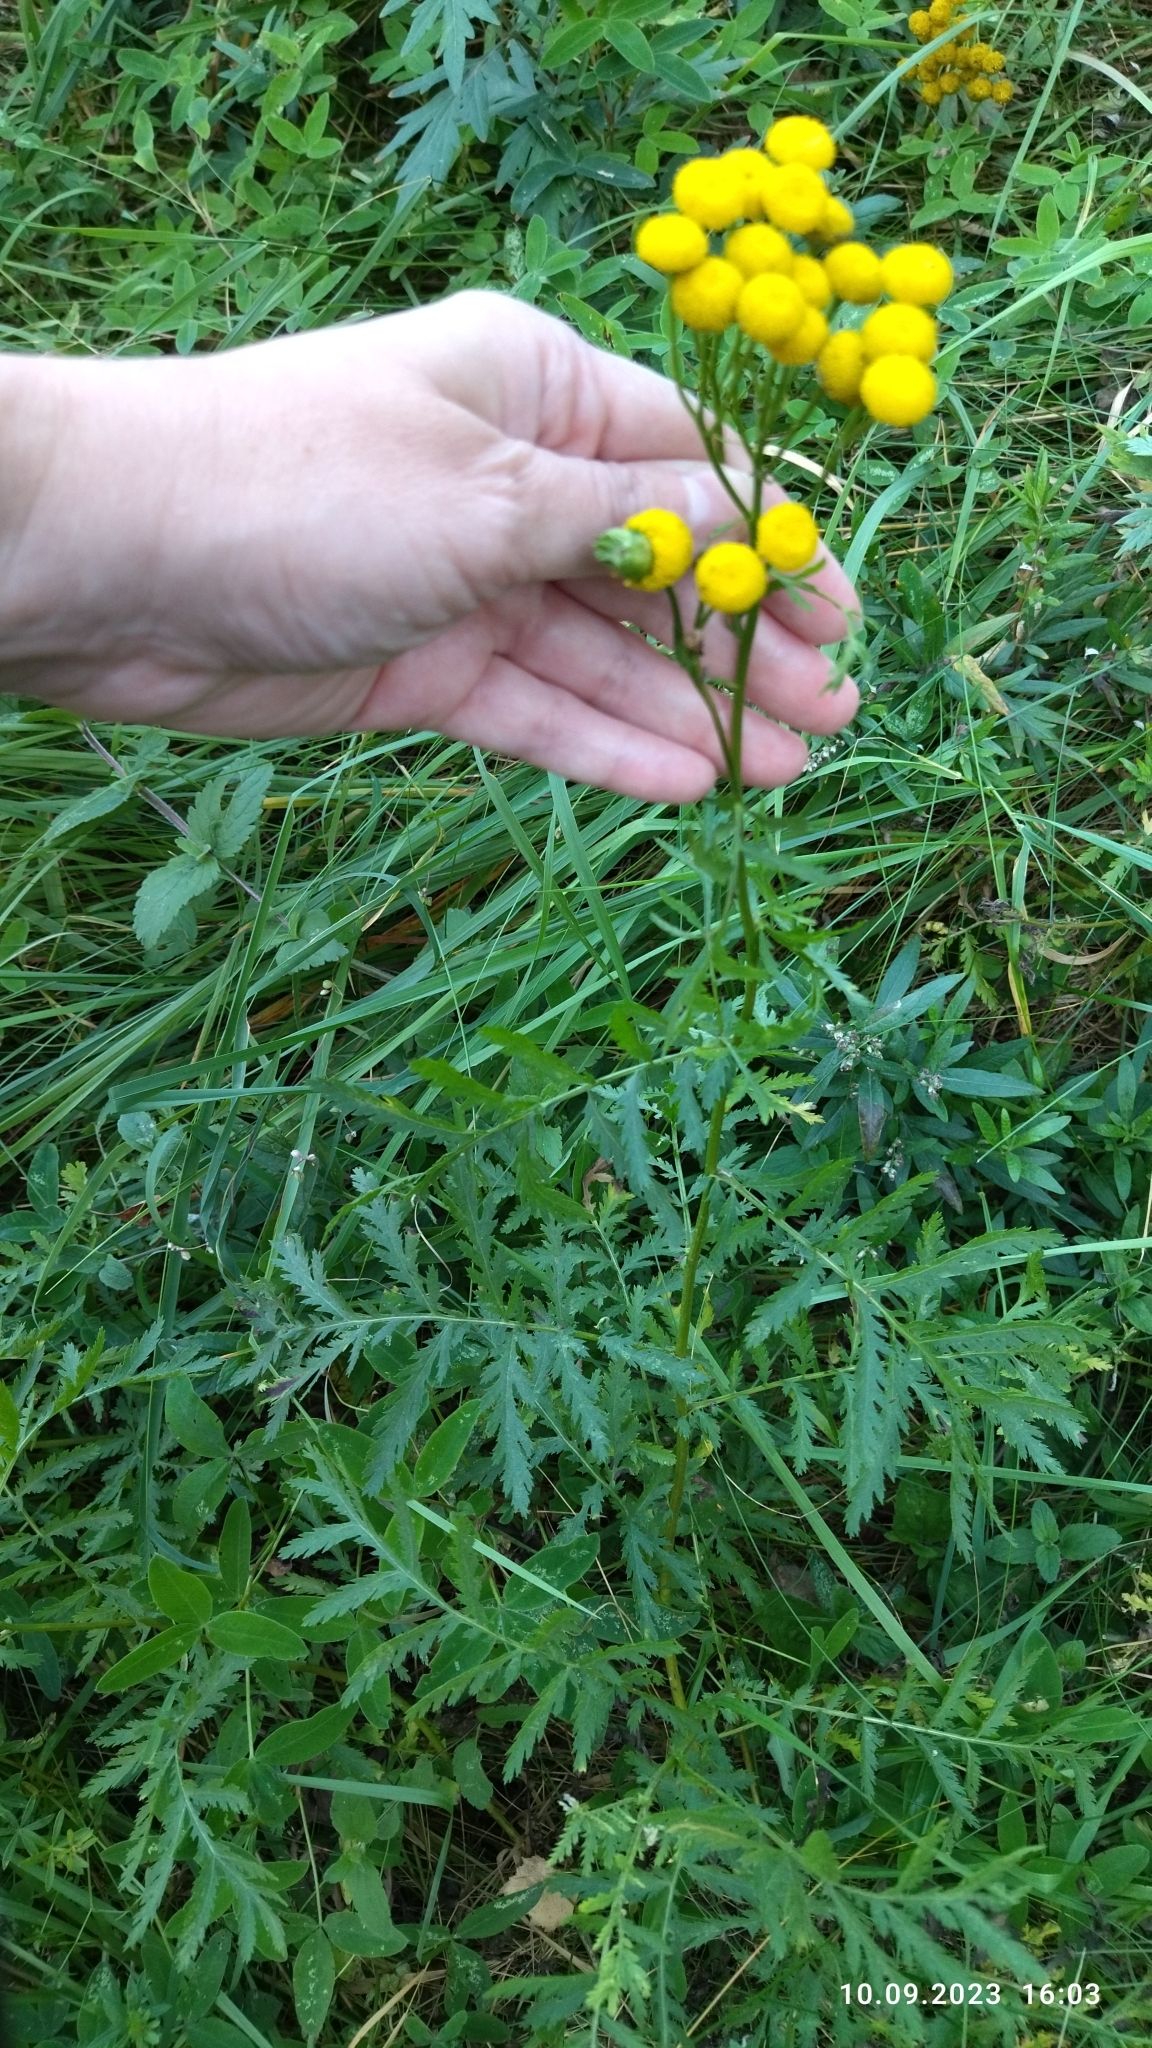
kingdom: Plantae
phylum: Tracheophyta
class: Magnoliopsida
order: Asterales
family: Asteraceae
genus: Tanacetum
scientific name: Tanacetum vulgare
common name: Common tansy
